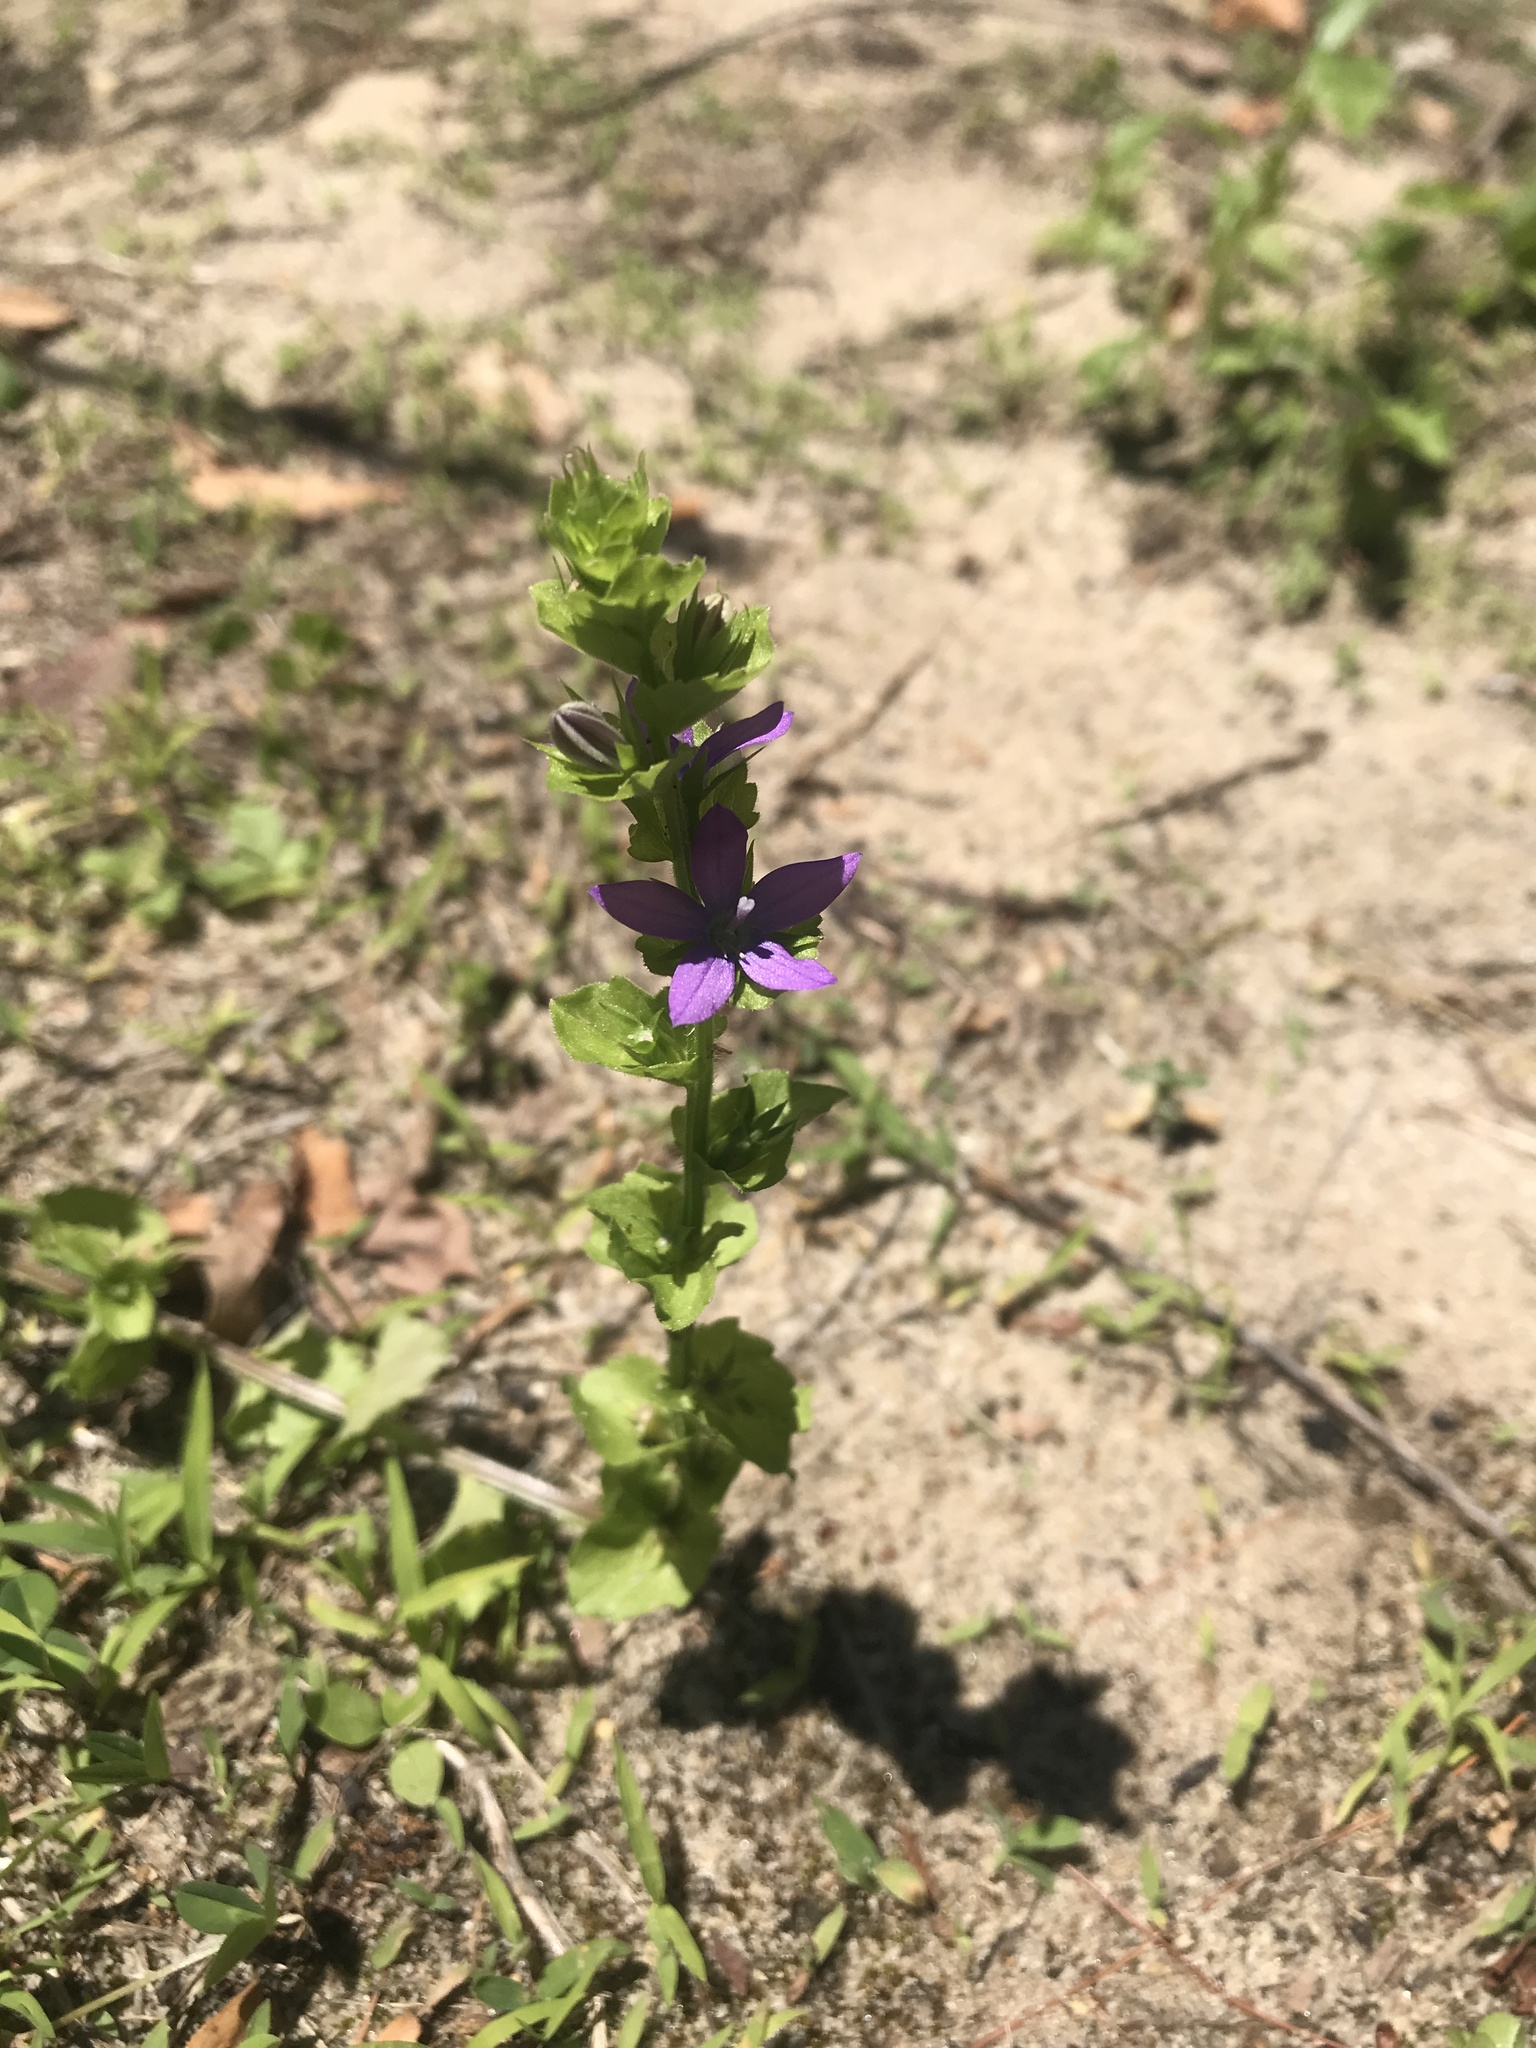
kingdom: Plantae
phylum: Tracheophyta
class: Magnoliopsida
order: Asterales
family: Campanulaceae
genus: Triodanis
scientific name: Triodanis perfoliata
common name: Clasping venus' looking-glass
